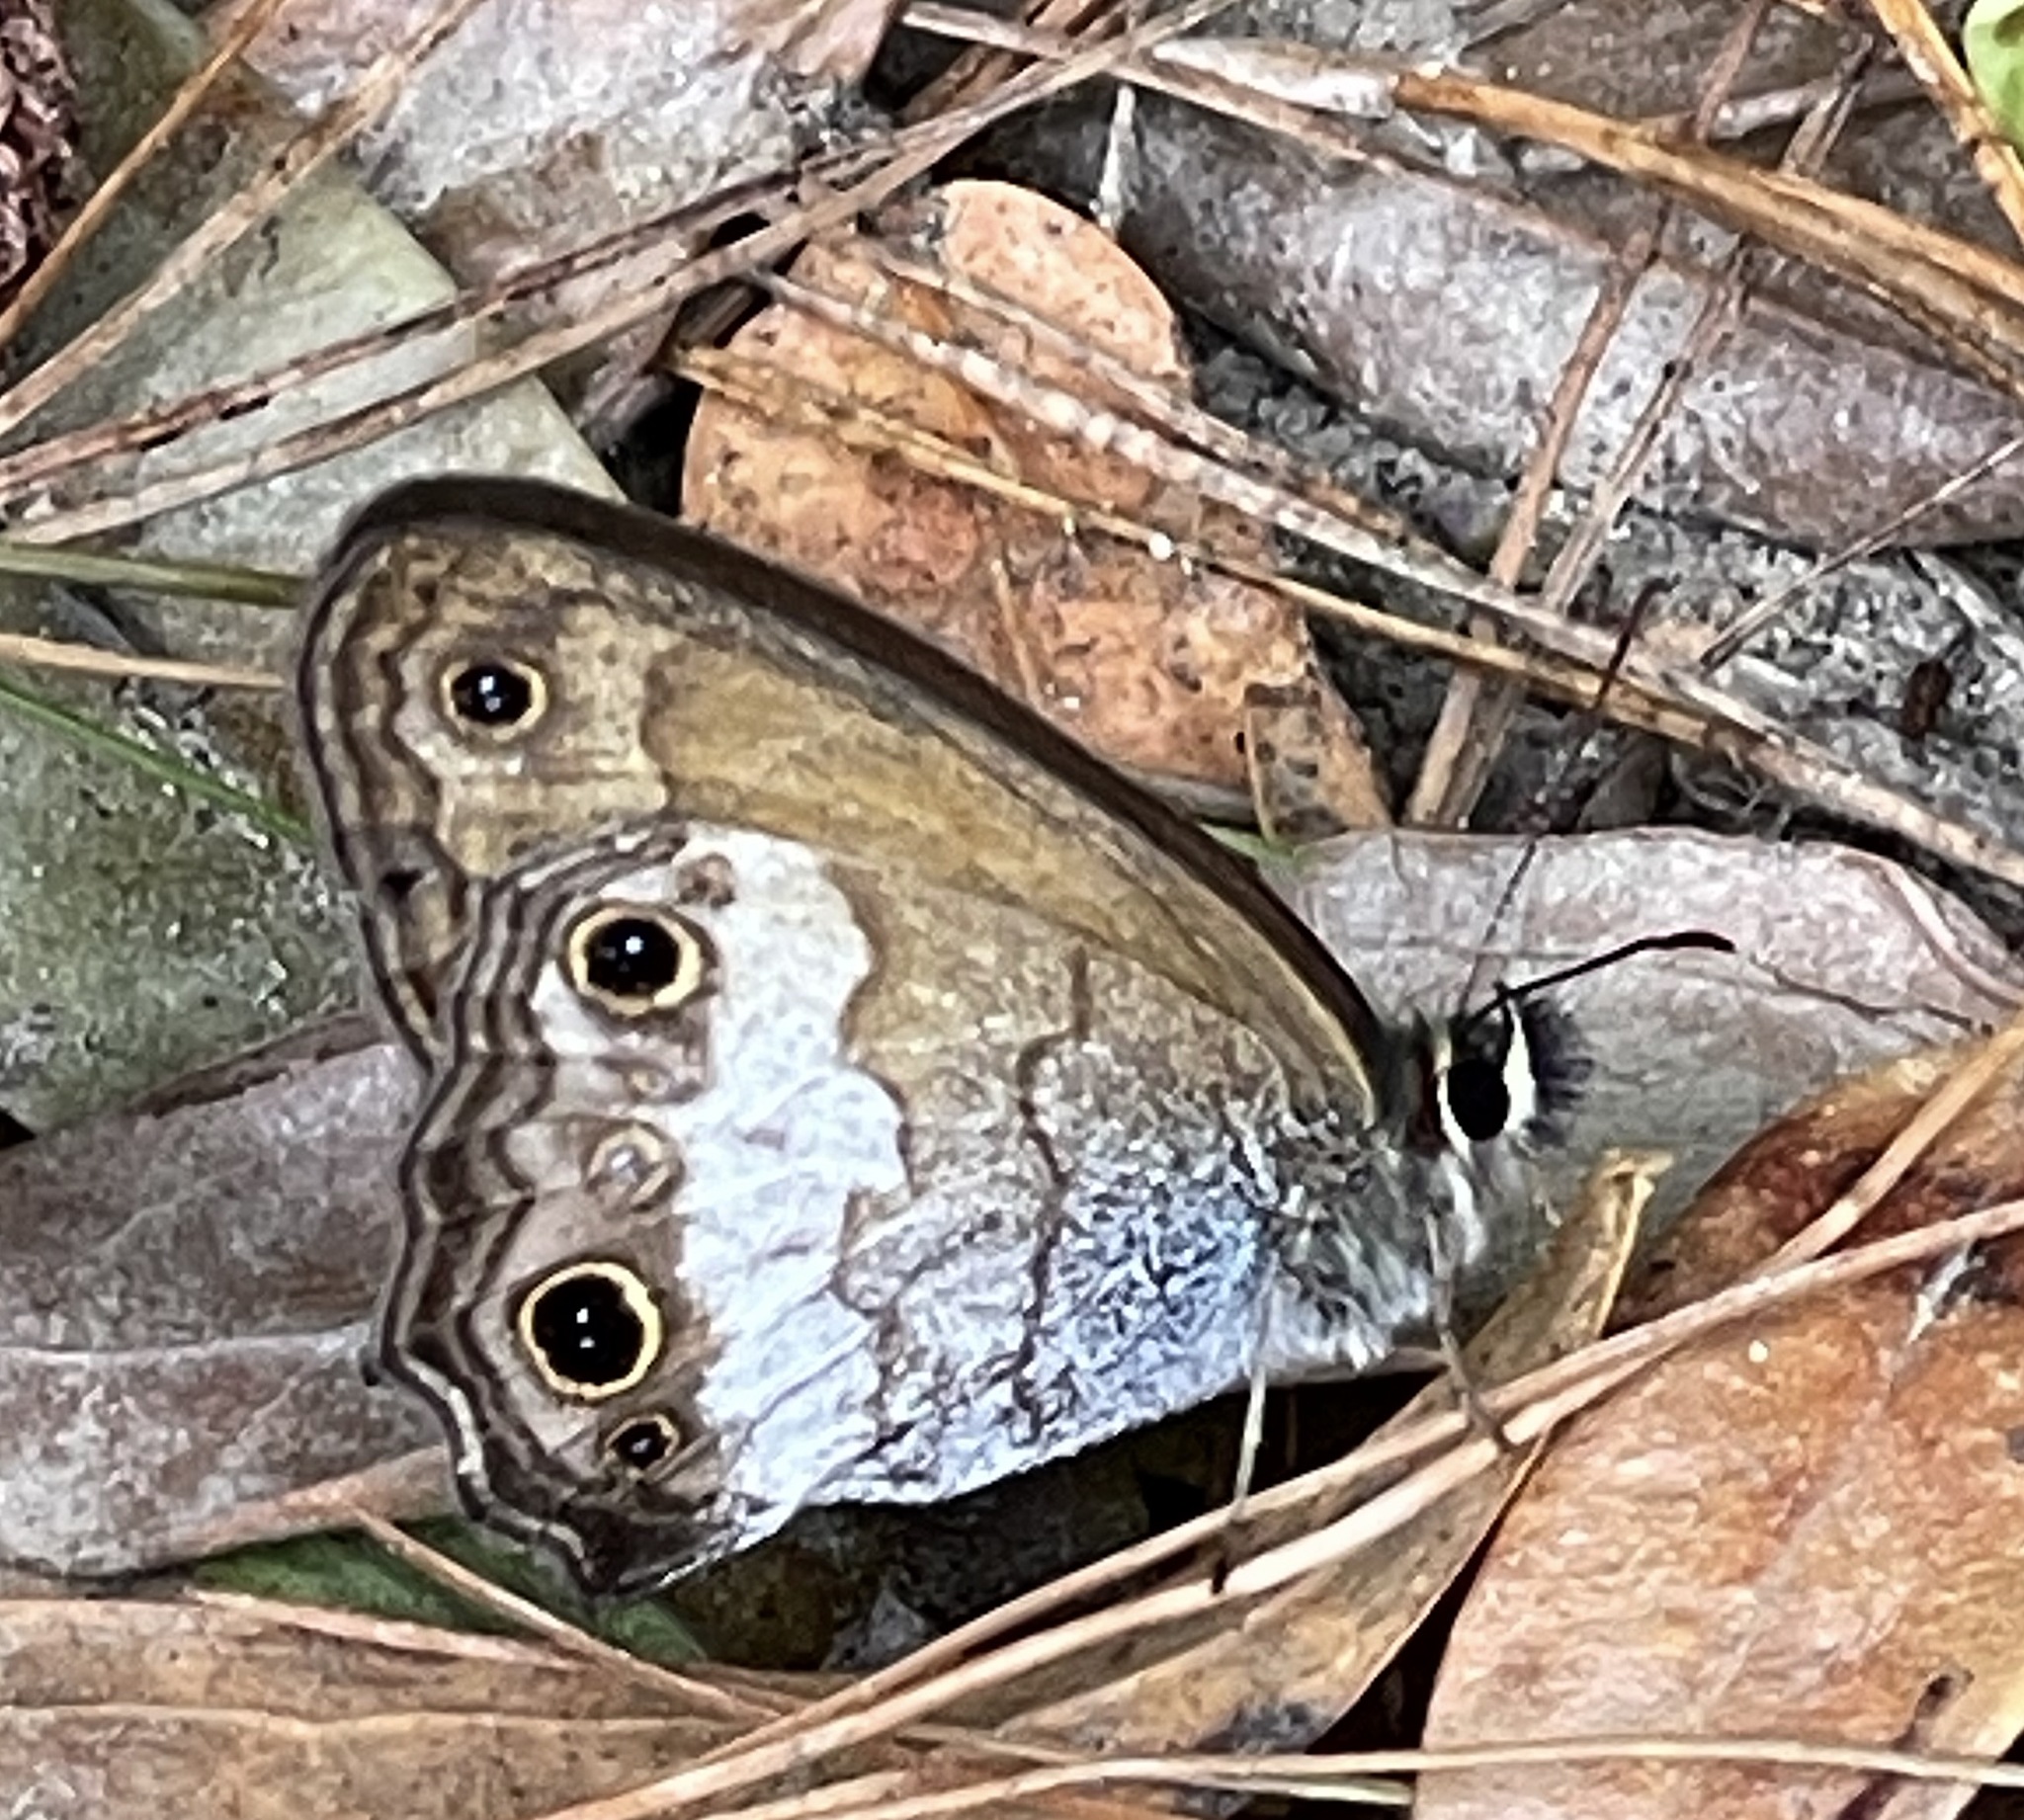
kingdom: Animalia
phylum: Arthropoda
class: Insecta
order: Lepidoptera
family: Nymphalidae
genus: Graphita
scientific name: Graphita griphe
